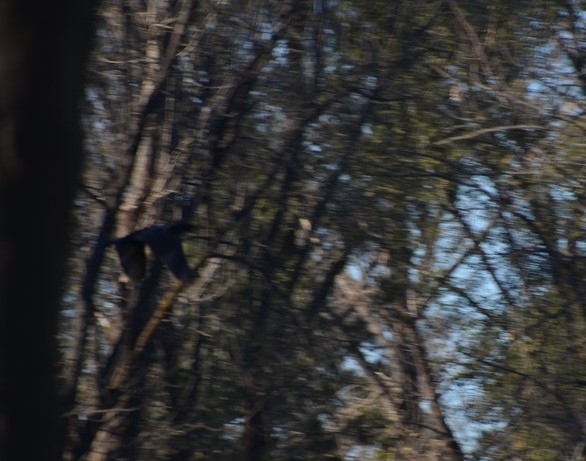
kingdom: Animalia
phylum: Chordata
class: Aves
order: Suliformes
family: Phalacrocoracidae
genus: Phalacrocorax
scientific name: Phalacrocorax brasilianus
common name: Neotropic cormorant
